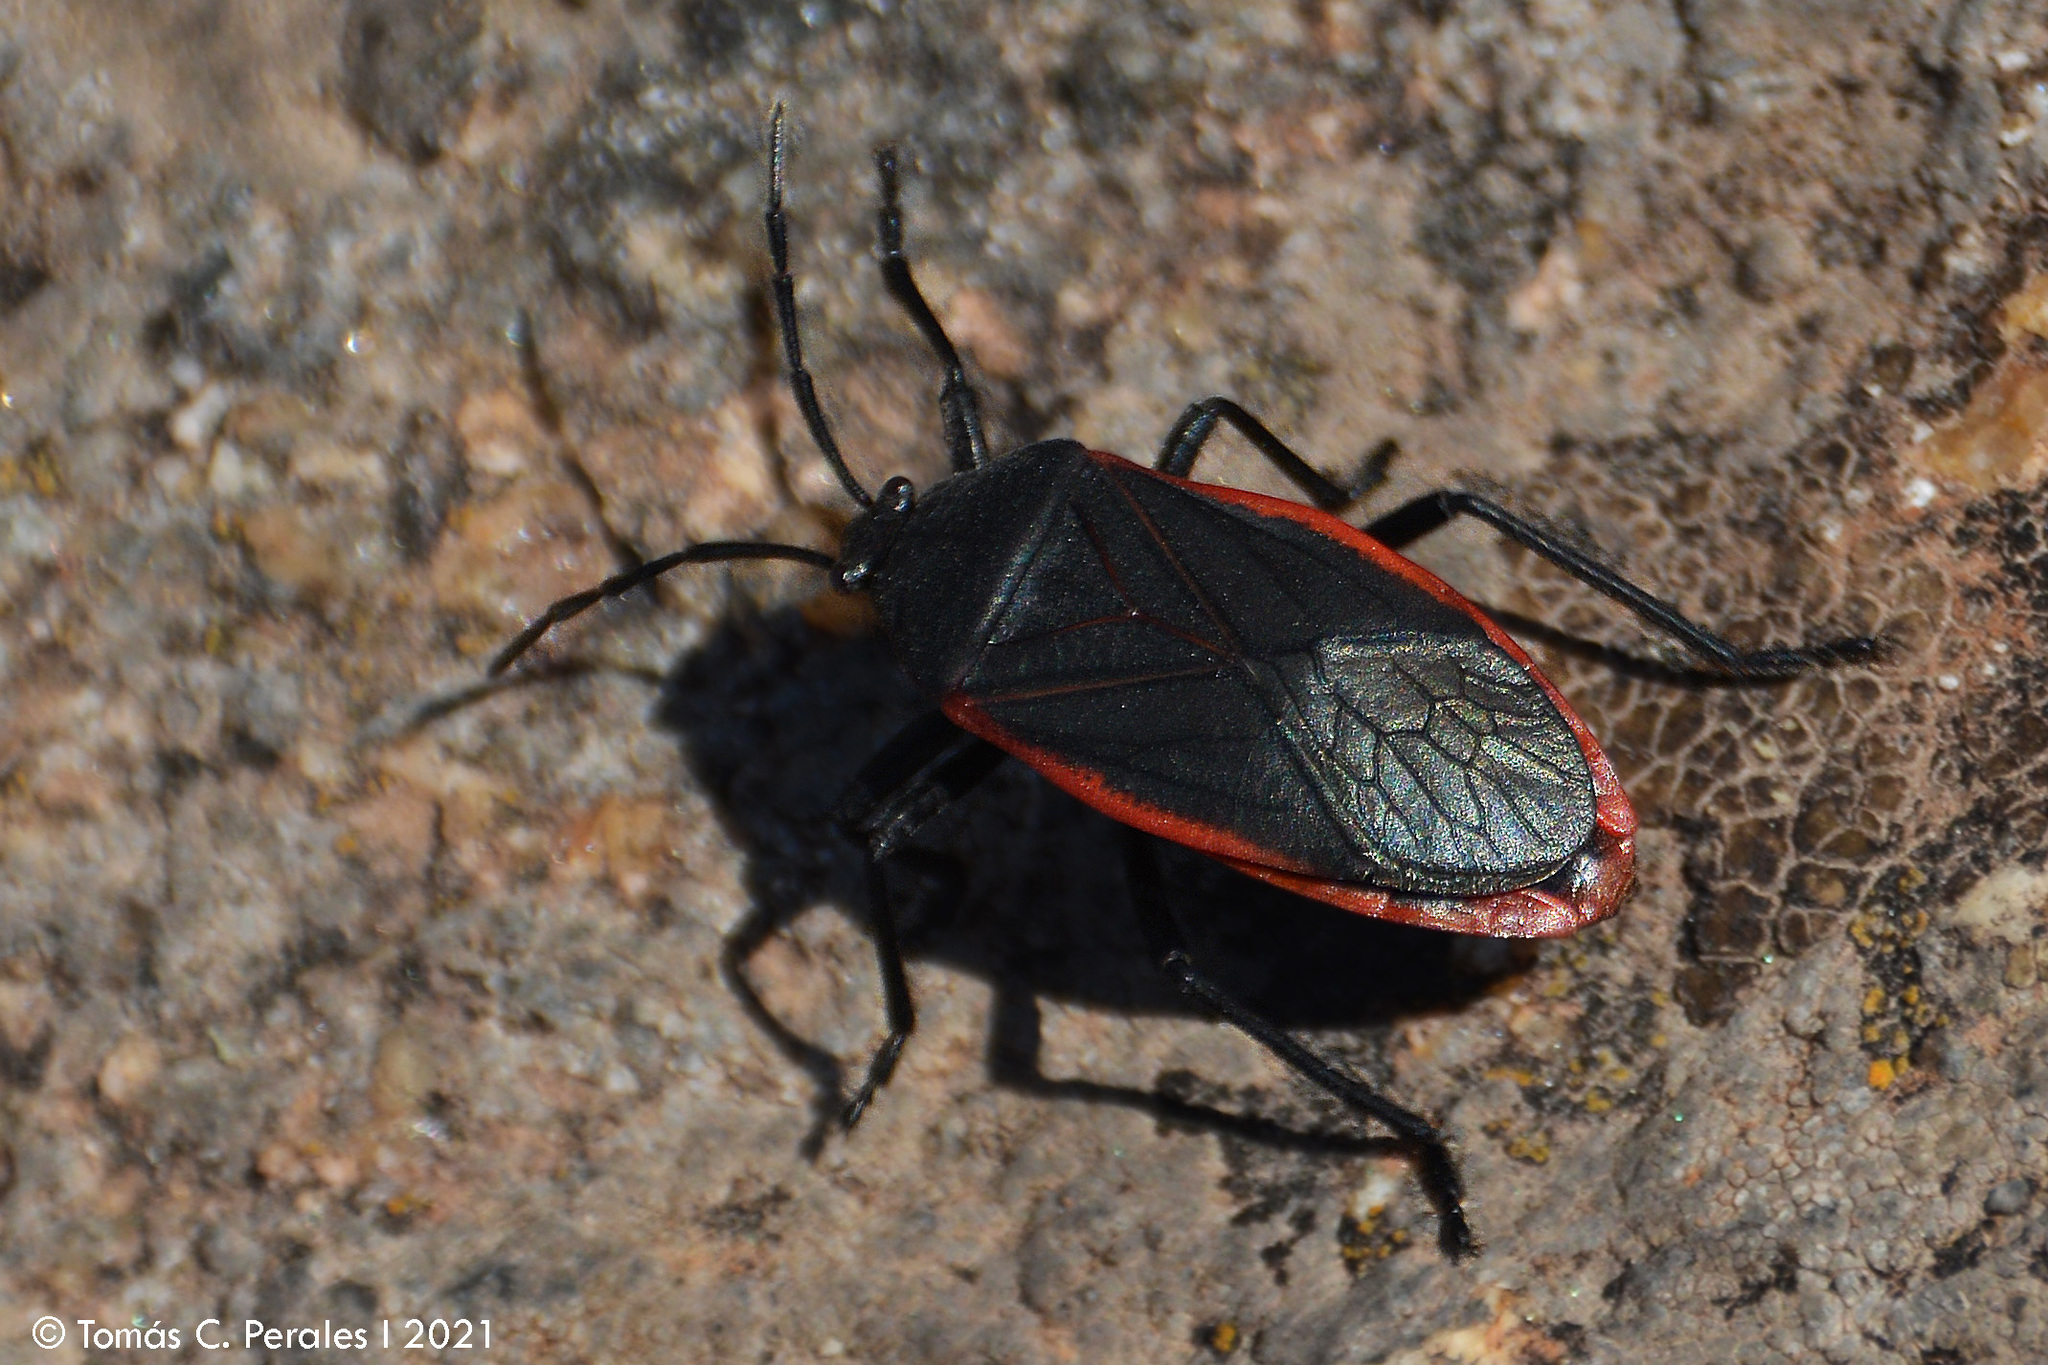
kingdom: Animalia
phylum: Arthropoda
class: Insecta
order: Hemiptera
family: Largidae
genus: Largus
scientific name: Largus rufipennis
